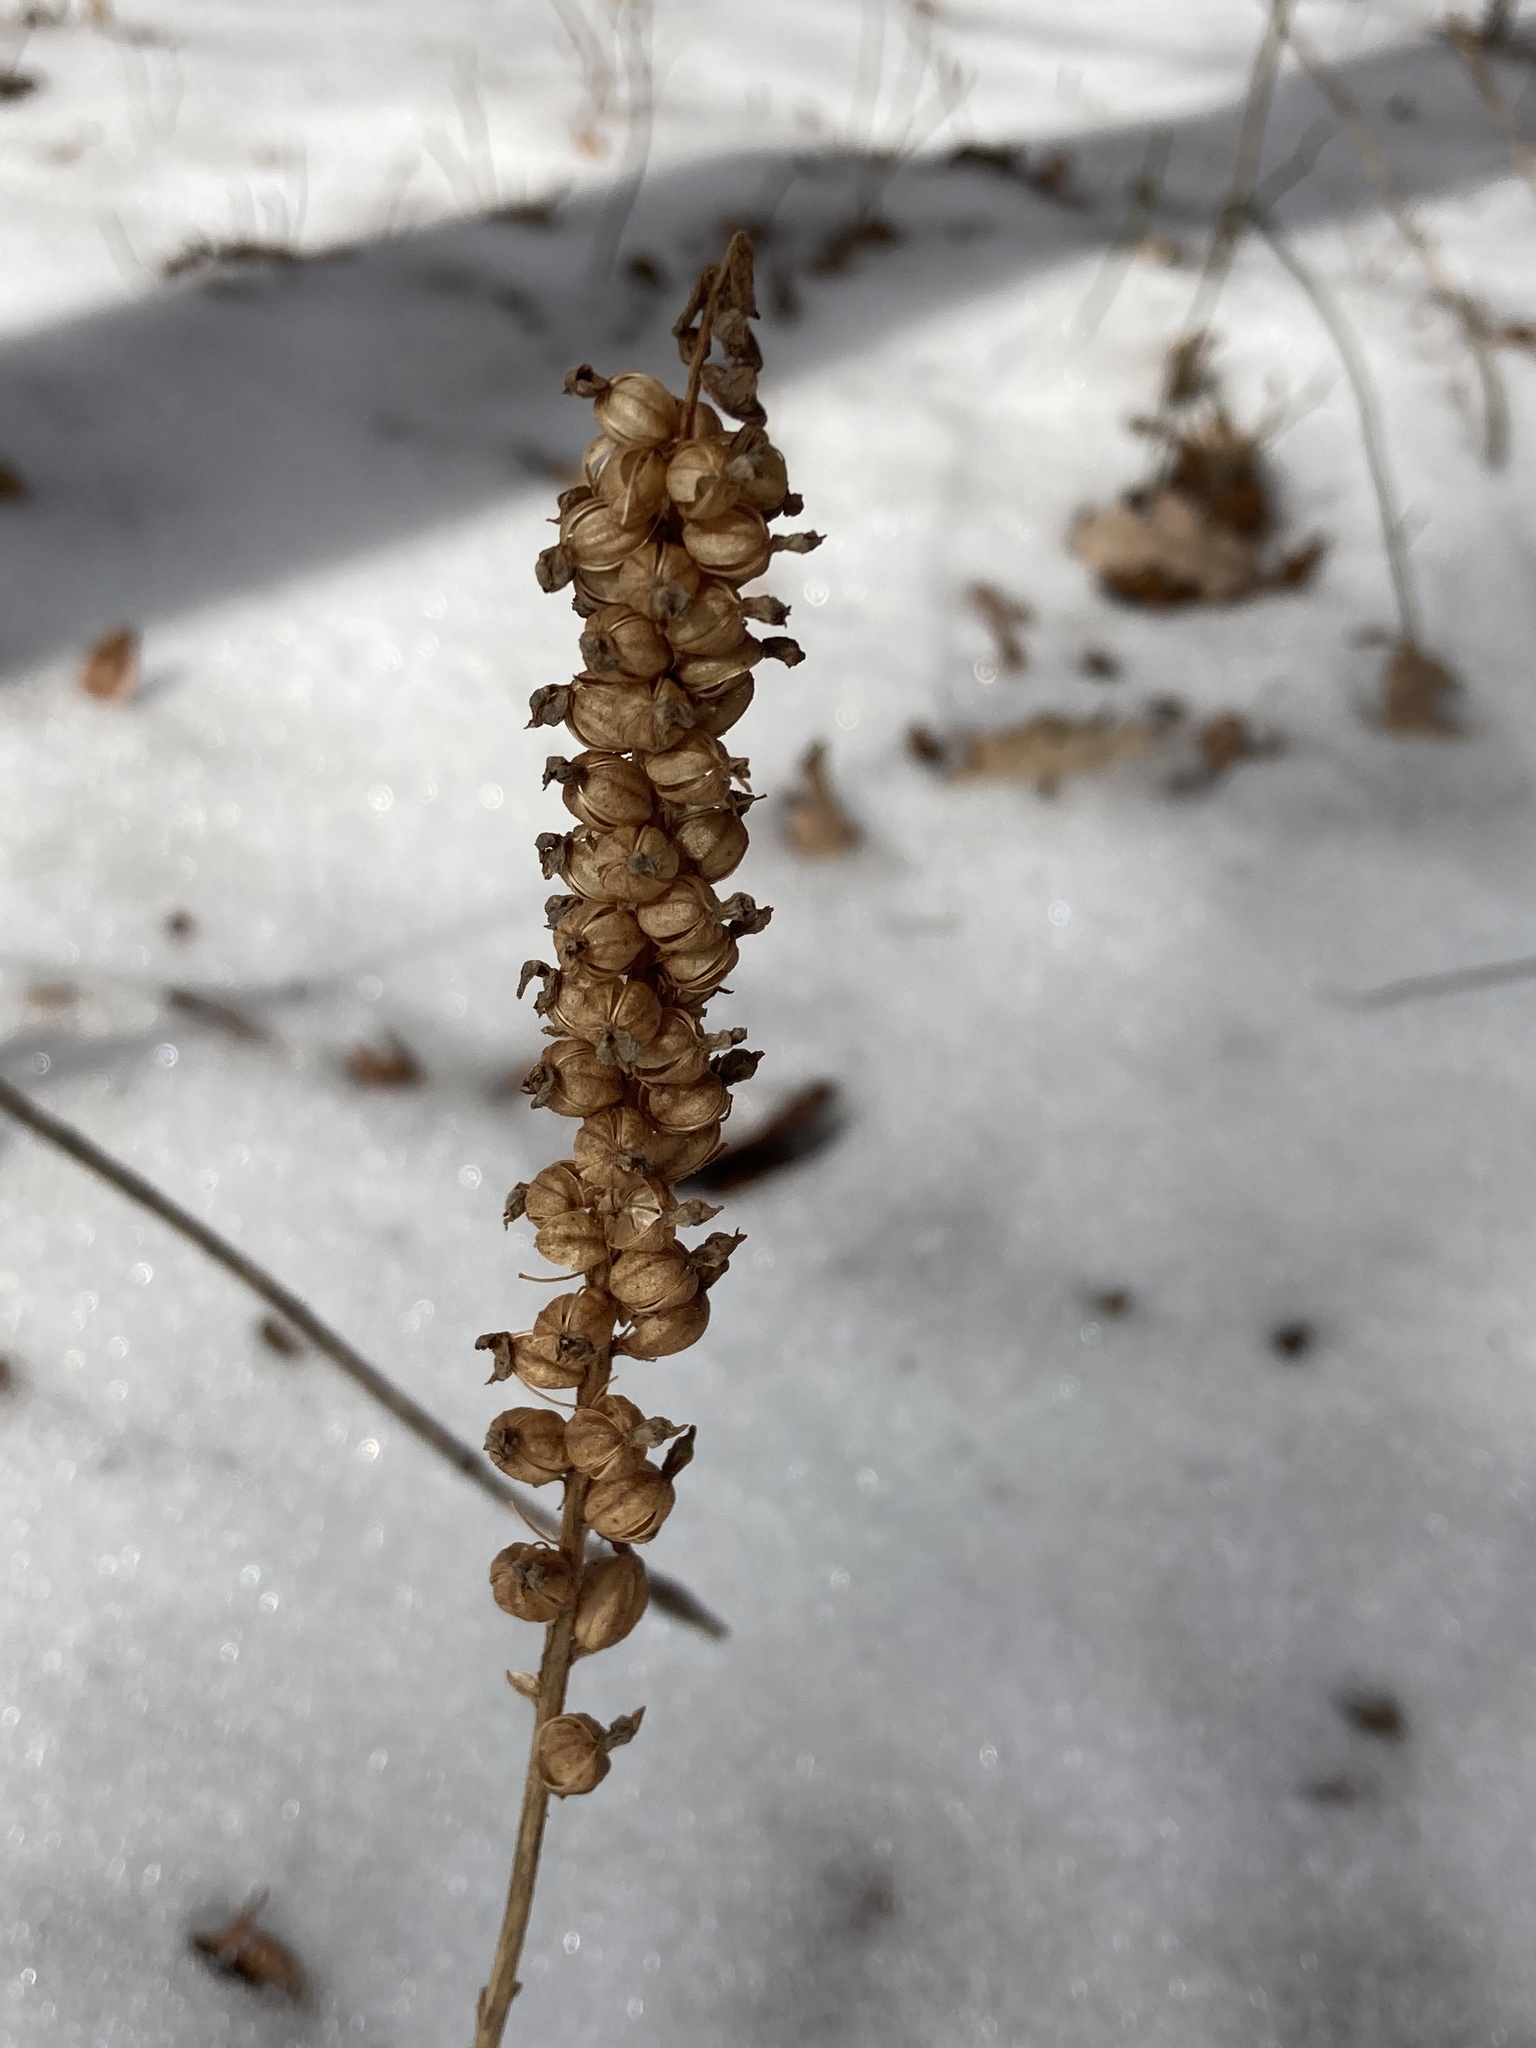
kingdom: Plantae
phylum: Tracheophyta
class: Liliopsida
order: Asparagales
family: Orchidaceae
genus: Goodyera
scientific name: Goodyera pubescens
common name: Downy rattlesnake-plantain
